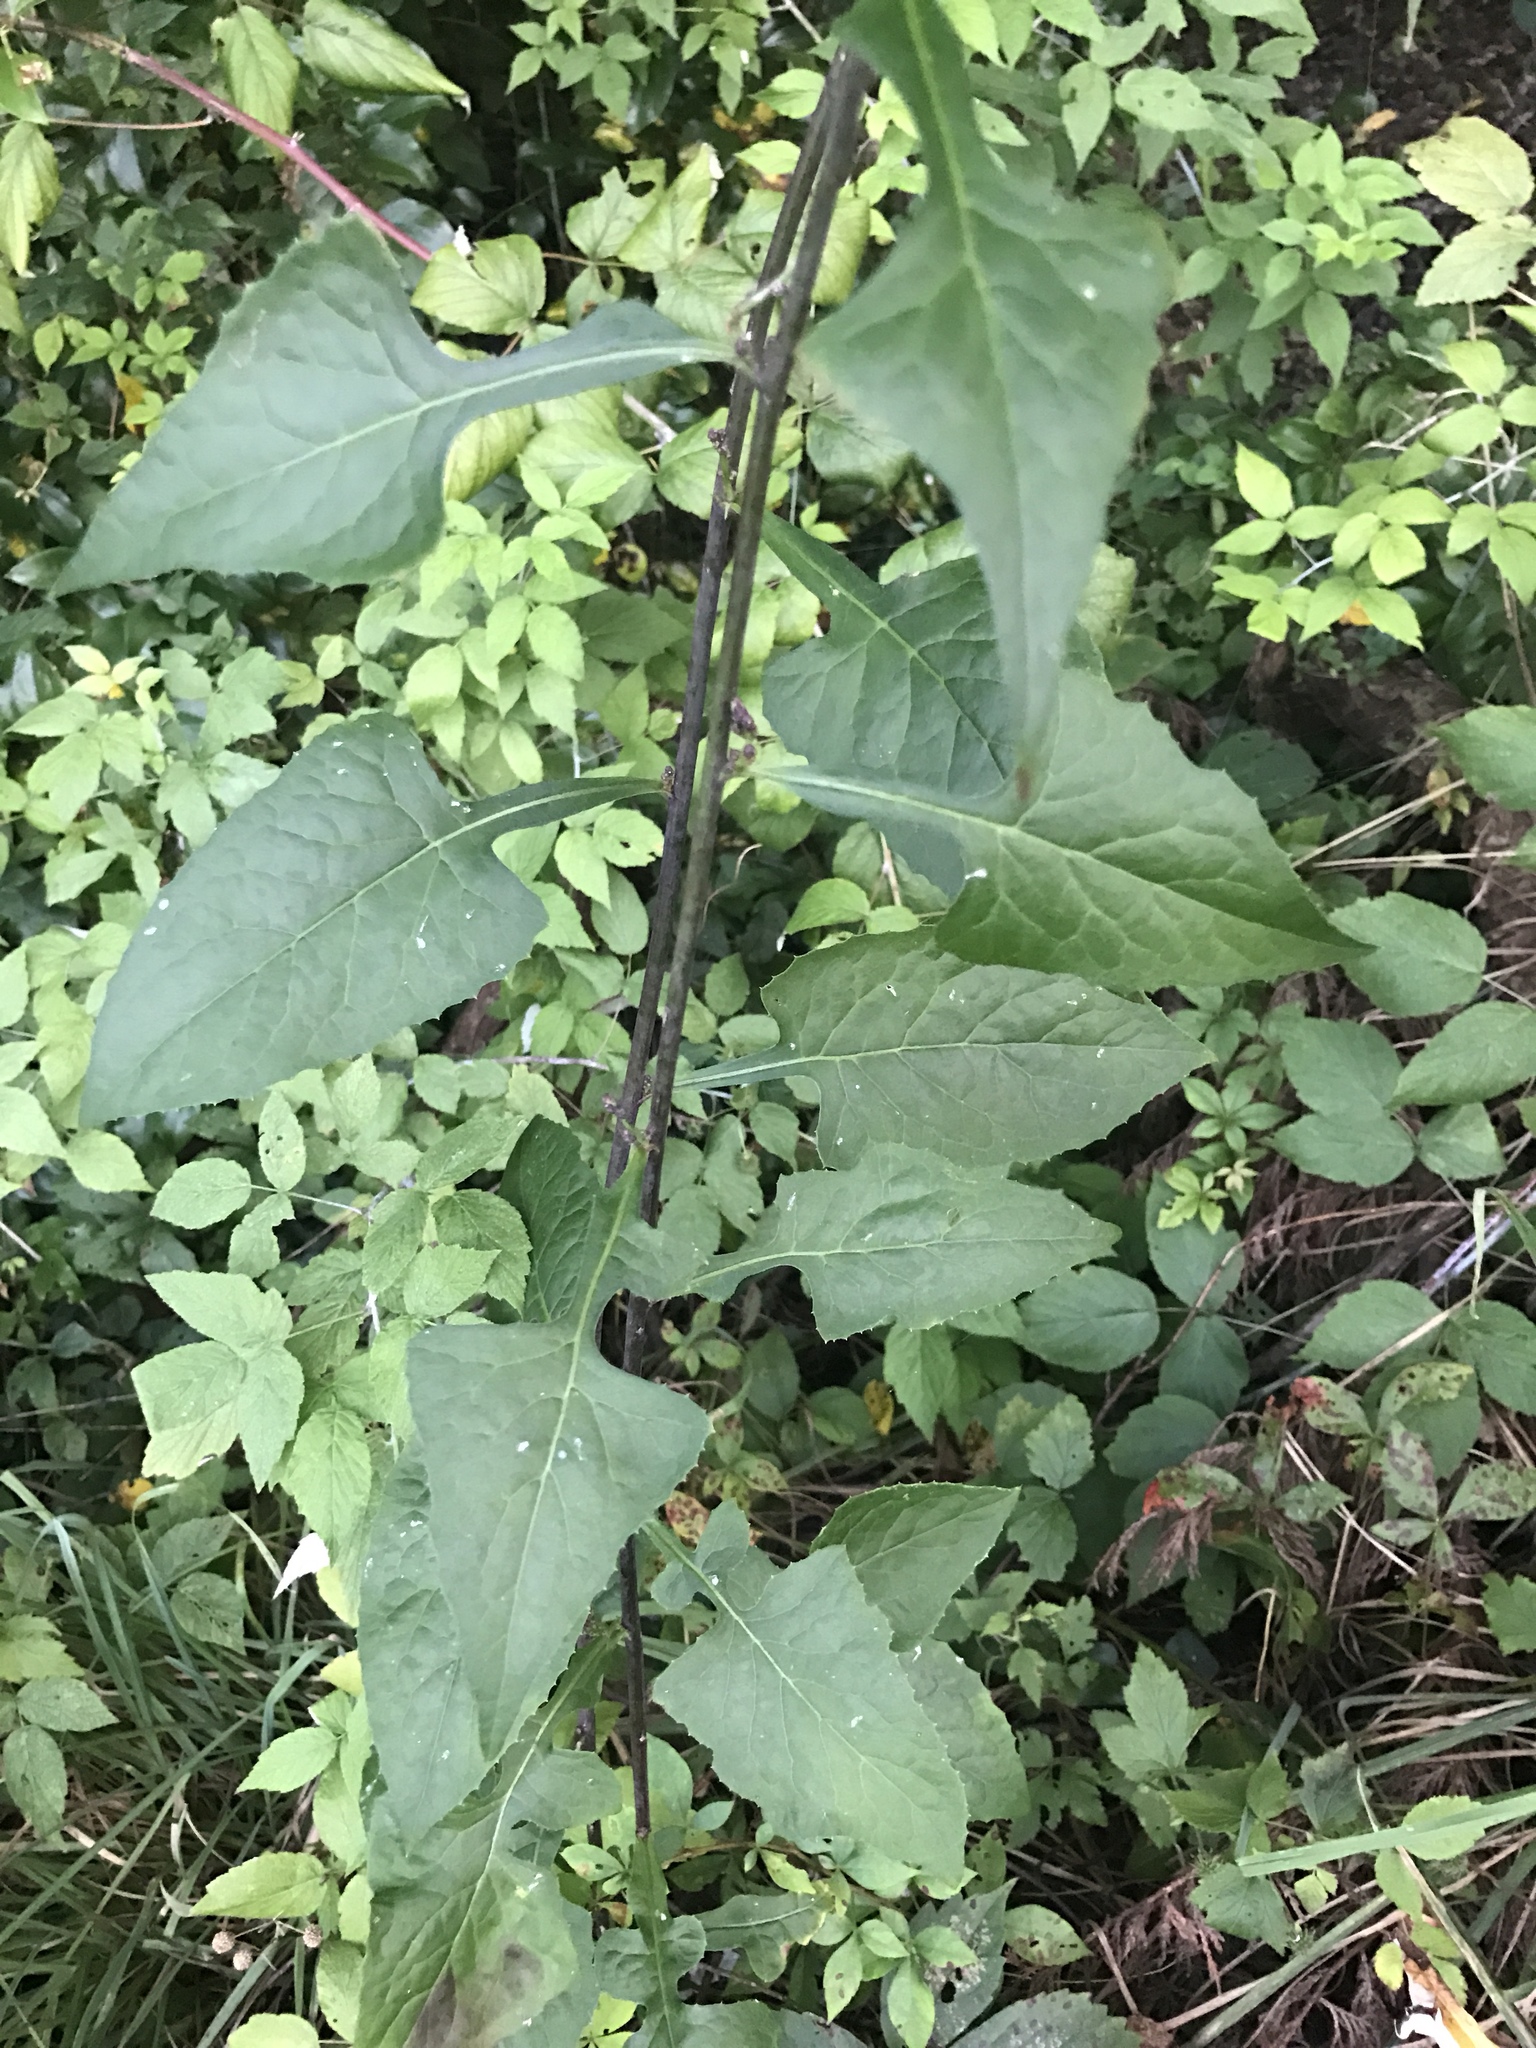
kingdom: Plantae
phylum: Tracheophyta
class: Magnoliopsida
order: Asterales
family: Asteraceae
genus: Lactuca
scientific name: Lactuca floridana
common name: Woodland lettuce
